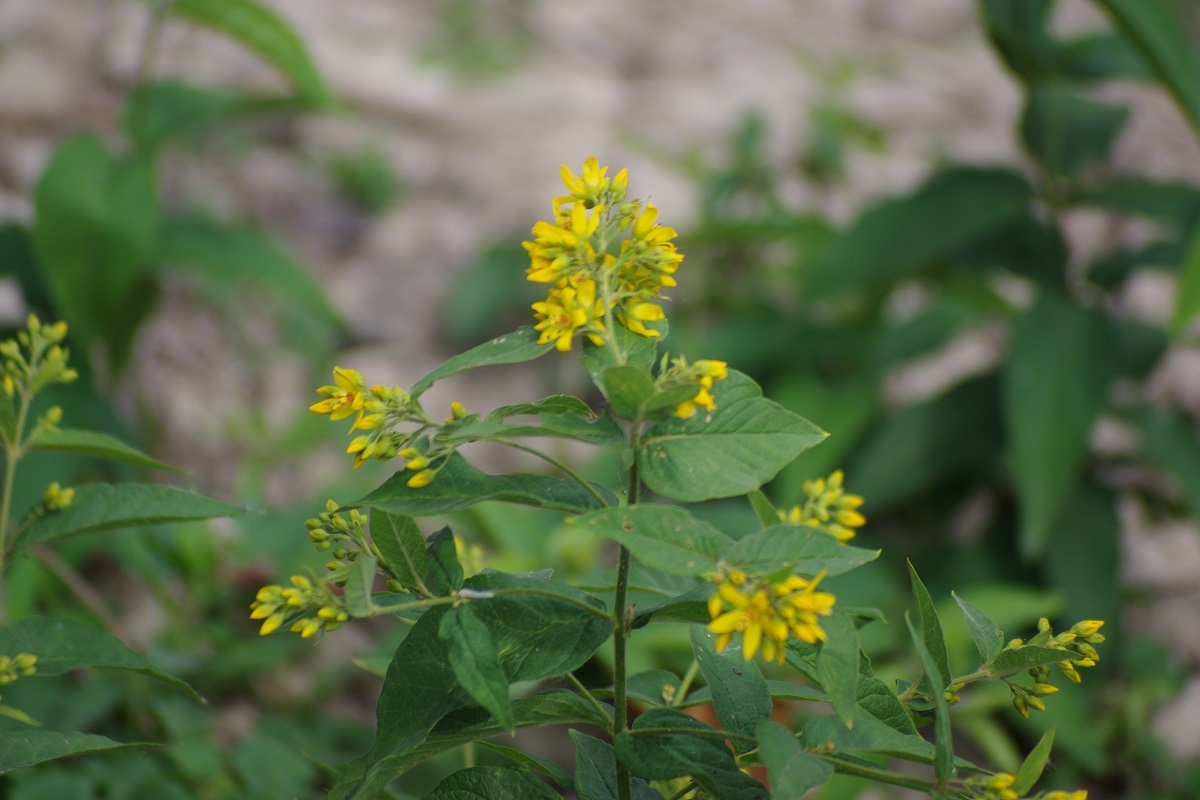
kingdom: Plantae
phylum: Tracheophyta
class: Magnoliopsida
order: Ericales
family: Primulaceae
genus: Lysimachia
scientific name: Lysimachia vulgaris
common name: Yellow loosestrife
